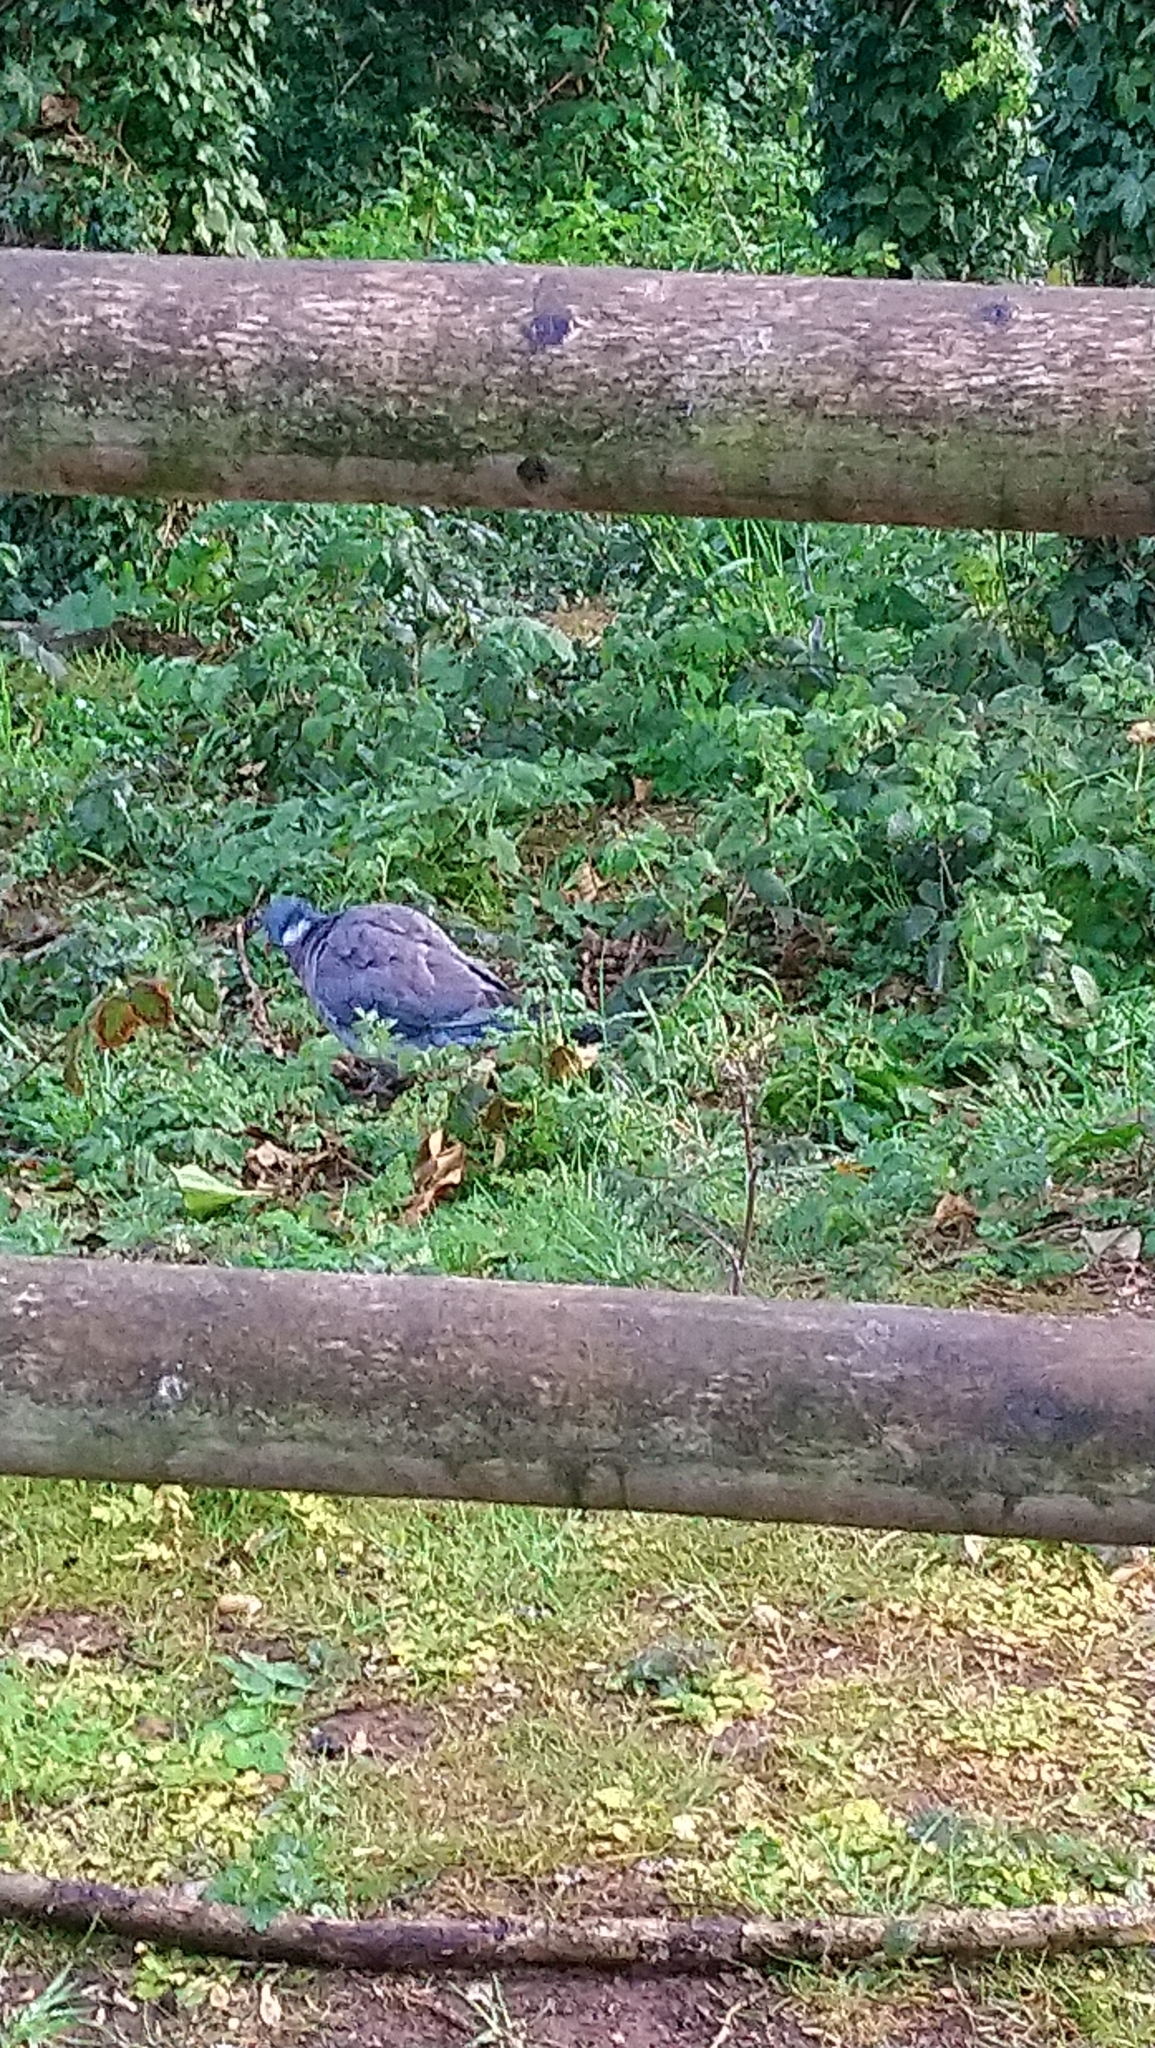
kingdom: Animalia
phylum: Chordata
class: Aves
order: Columbiformes
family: Columbidae
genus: Columba
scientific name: Columba palumbus
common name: Common wood pigeon
